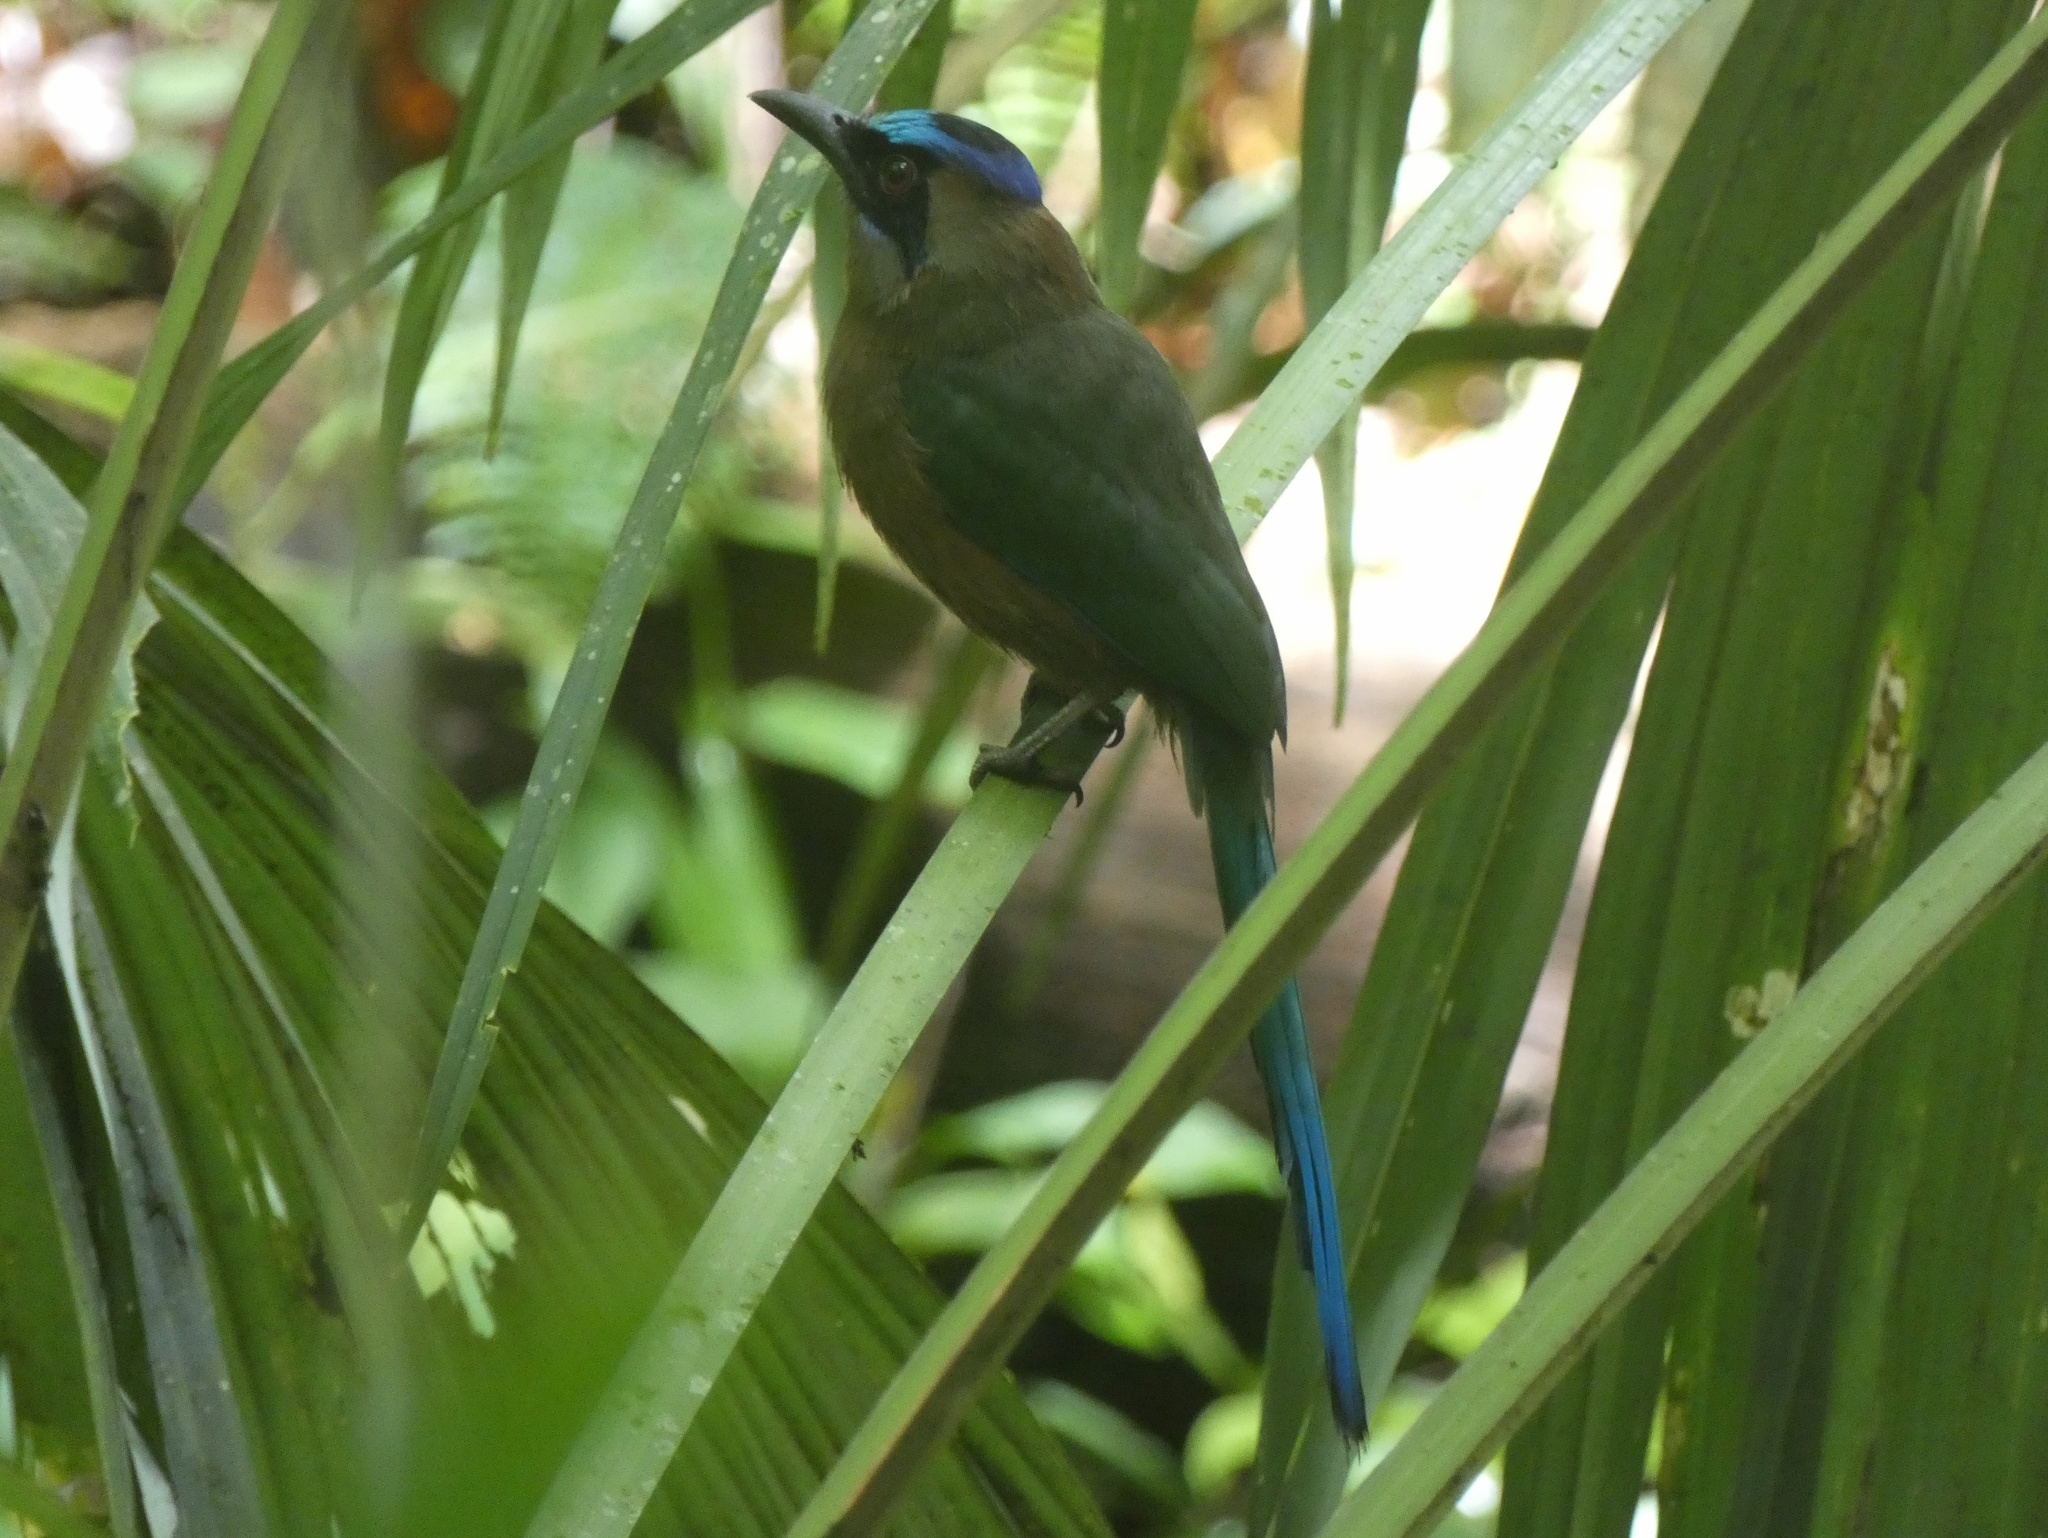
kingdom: Animalia
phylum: Chordata
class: Aves
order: Coraciiformes
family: Momotidae
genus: Momotus
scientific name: Momotus subrufescens
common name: Whooping motmot
